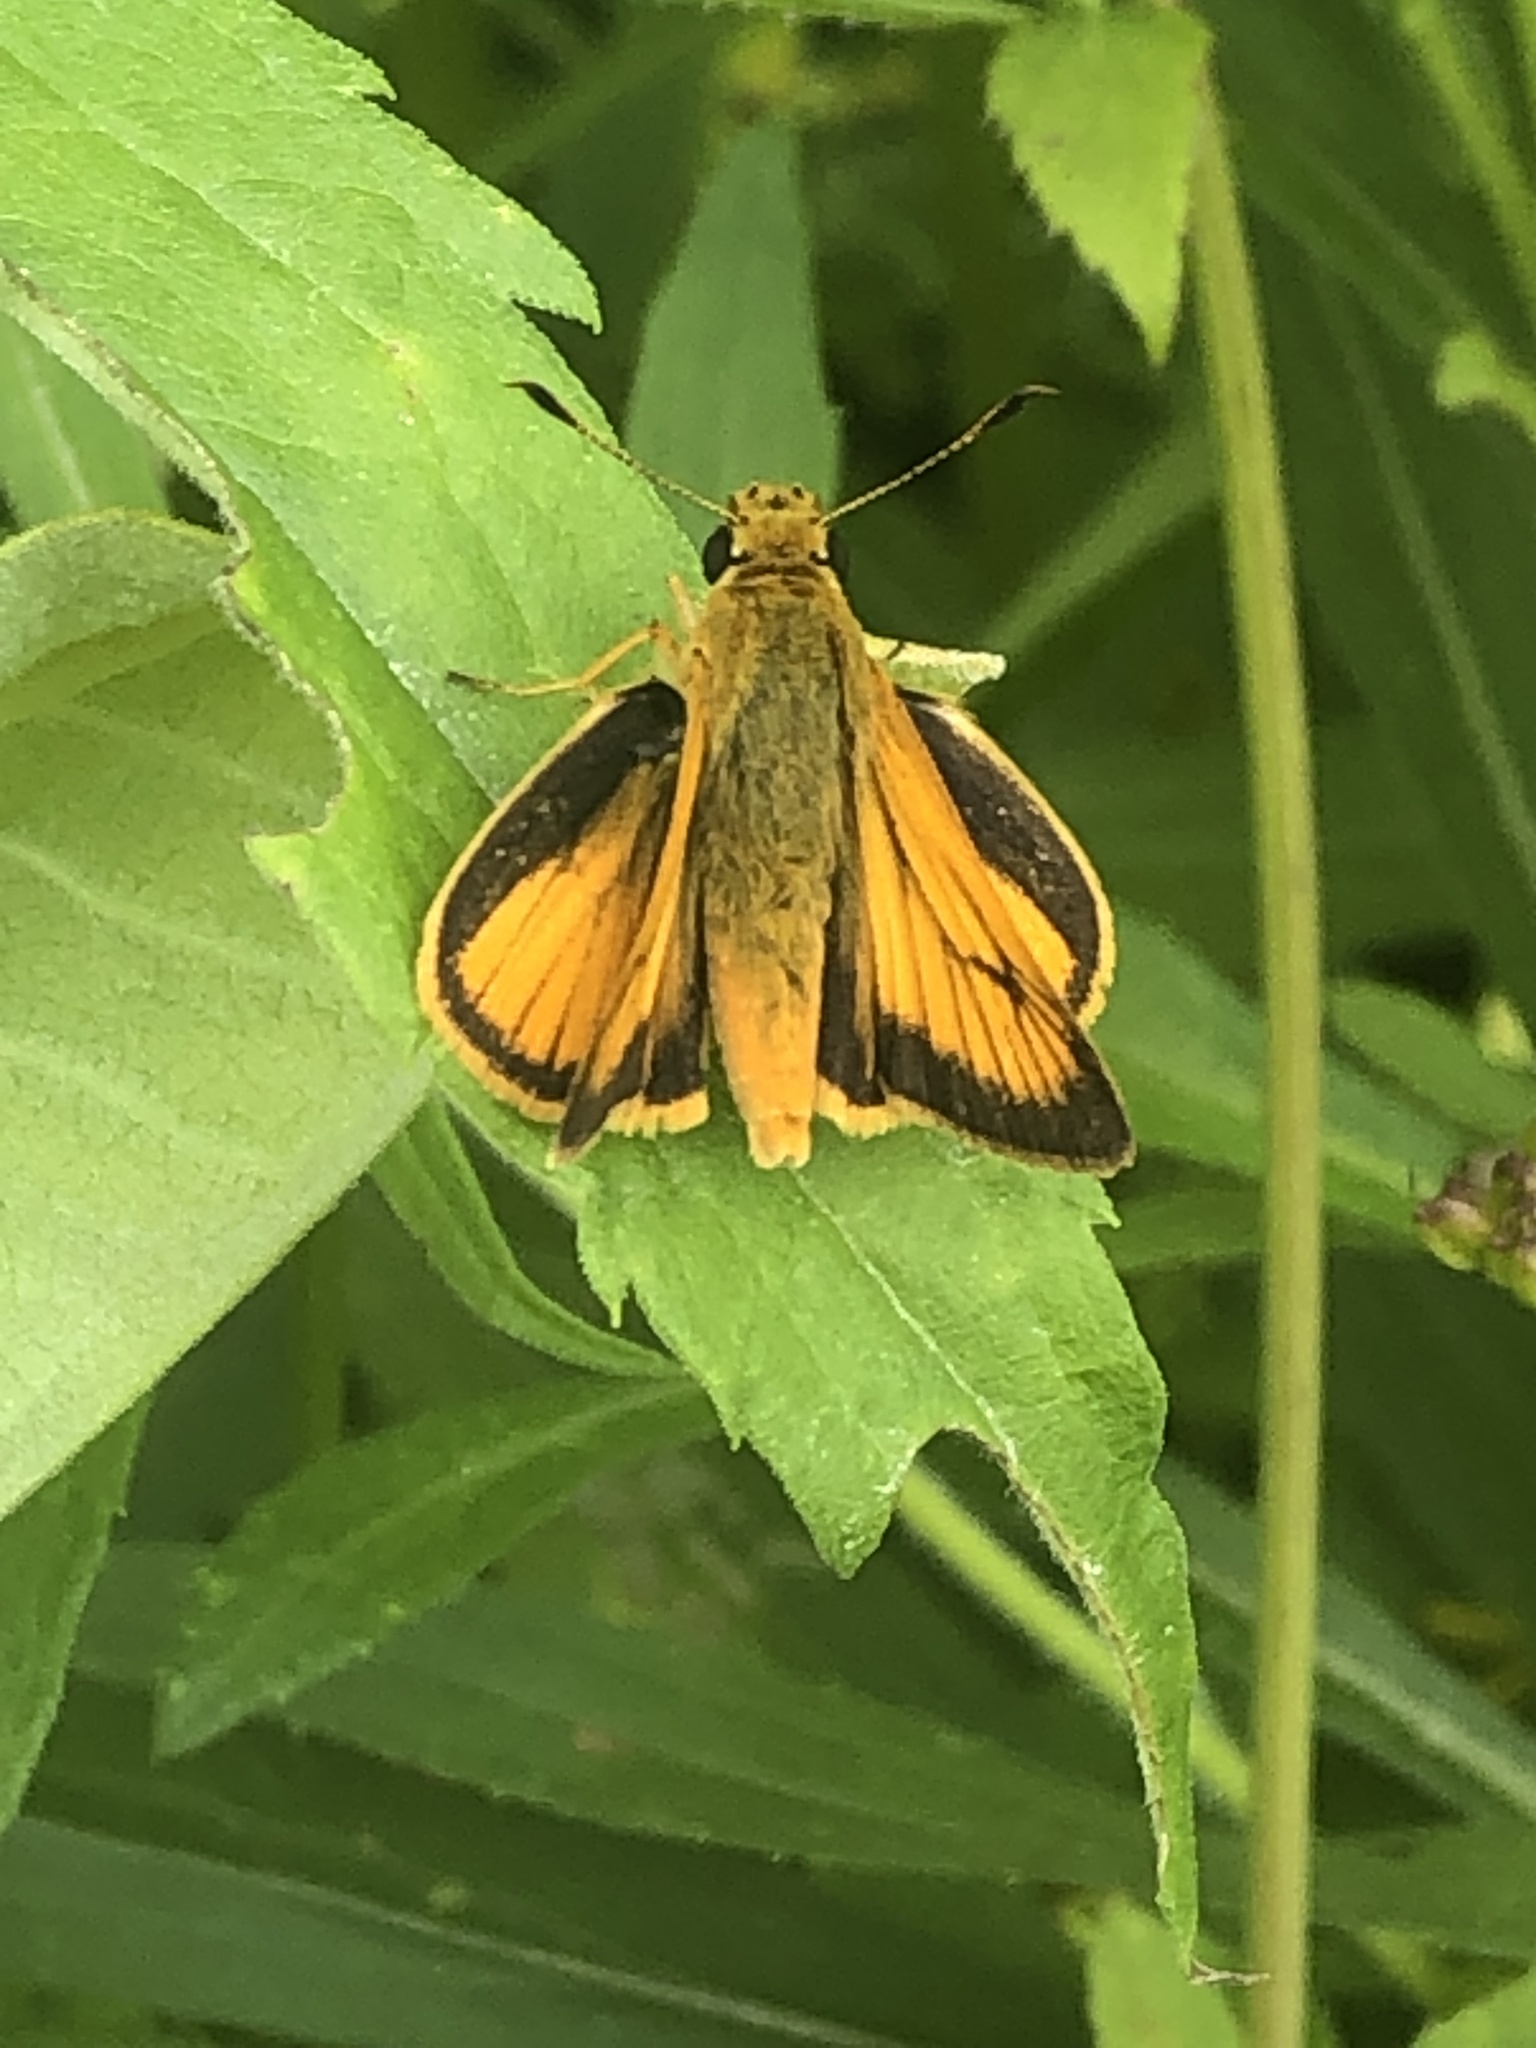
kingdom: Animalia
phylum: Arthropoda
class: Insecta
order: Lepidoptera
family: Hesperiidae
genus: Atrytone
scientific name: Atrytone delaware
